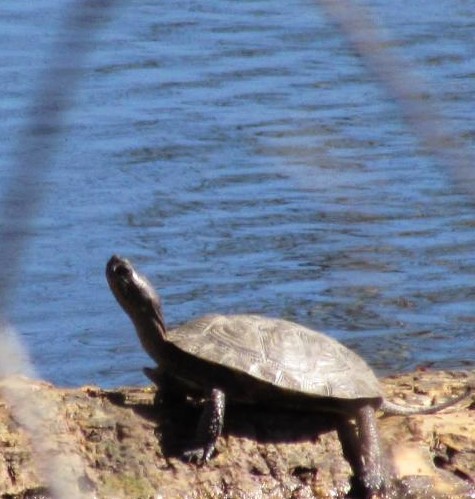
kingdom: Animalia
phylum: Chordata
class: Testudines
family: Emydidae
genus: Actinemys
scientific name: Actinemys marmorata
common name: Western pond turtle
